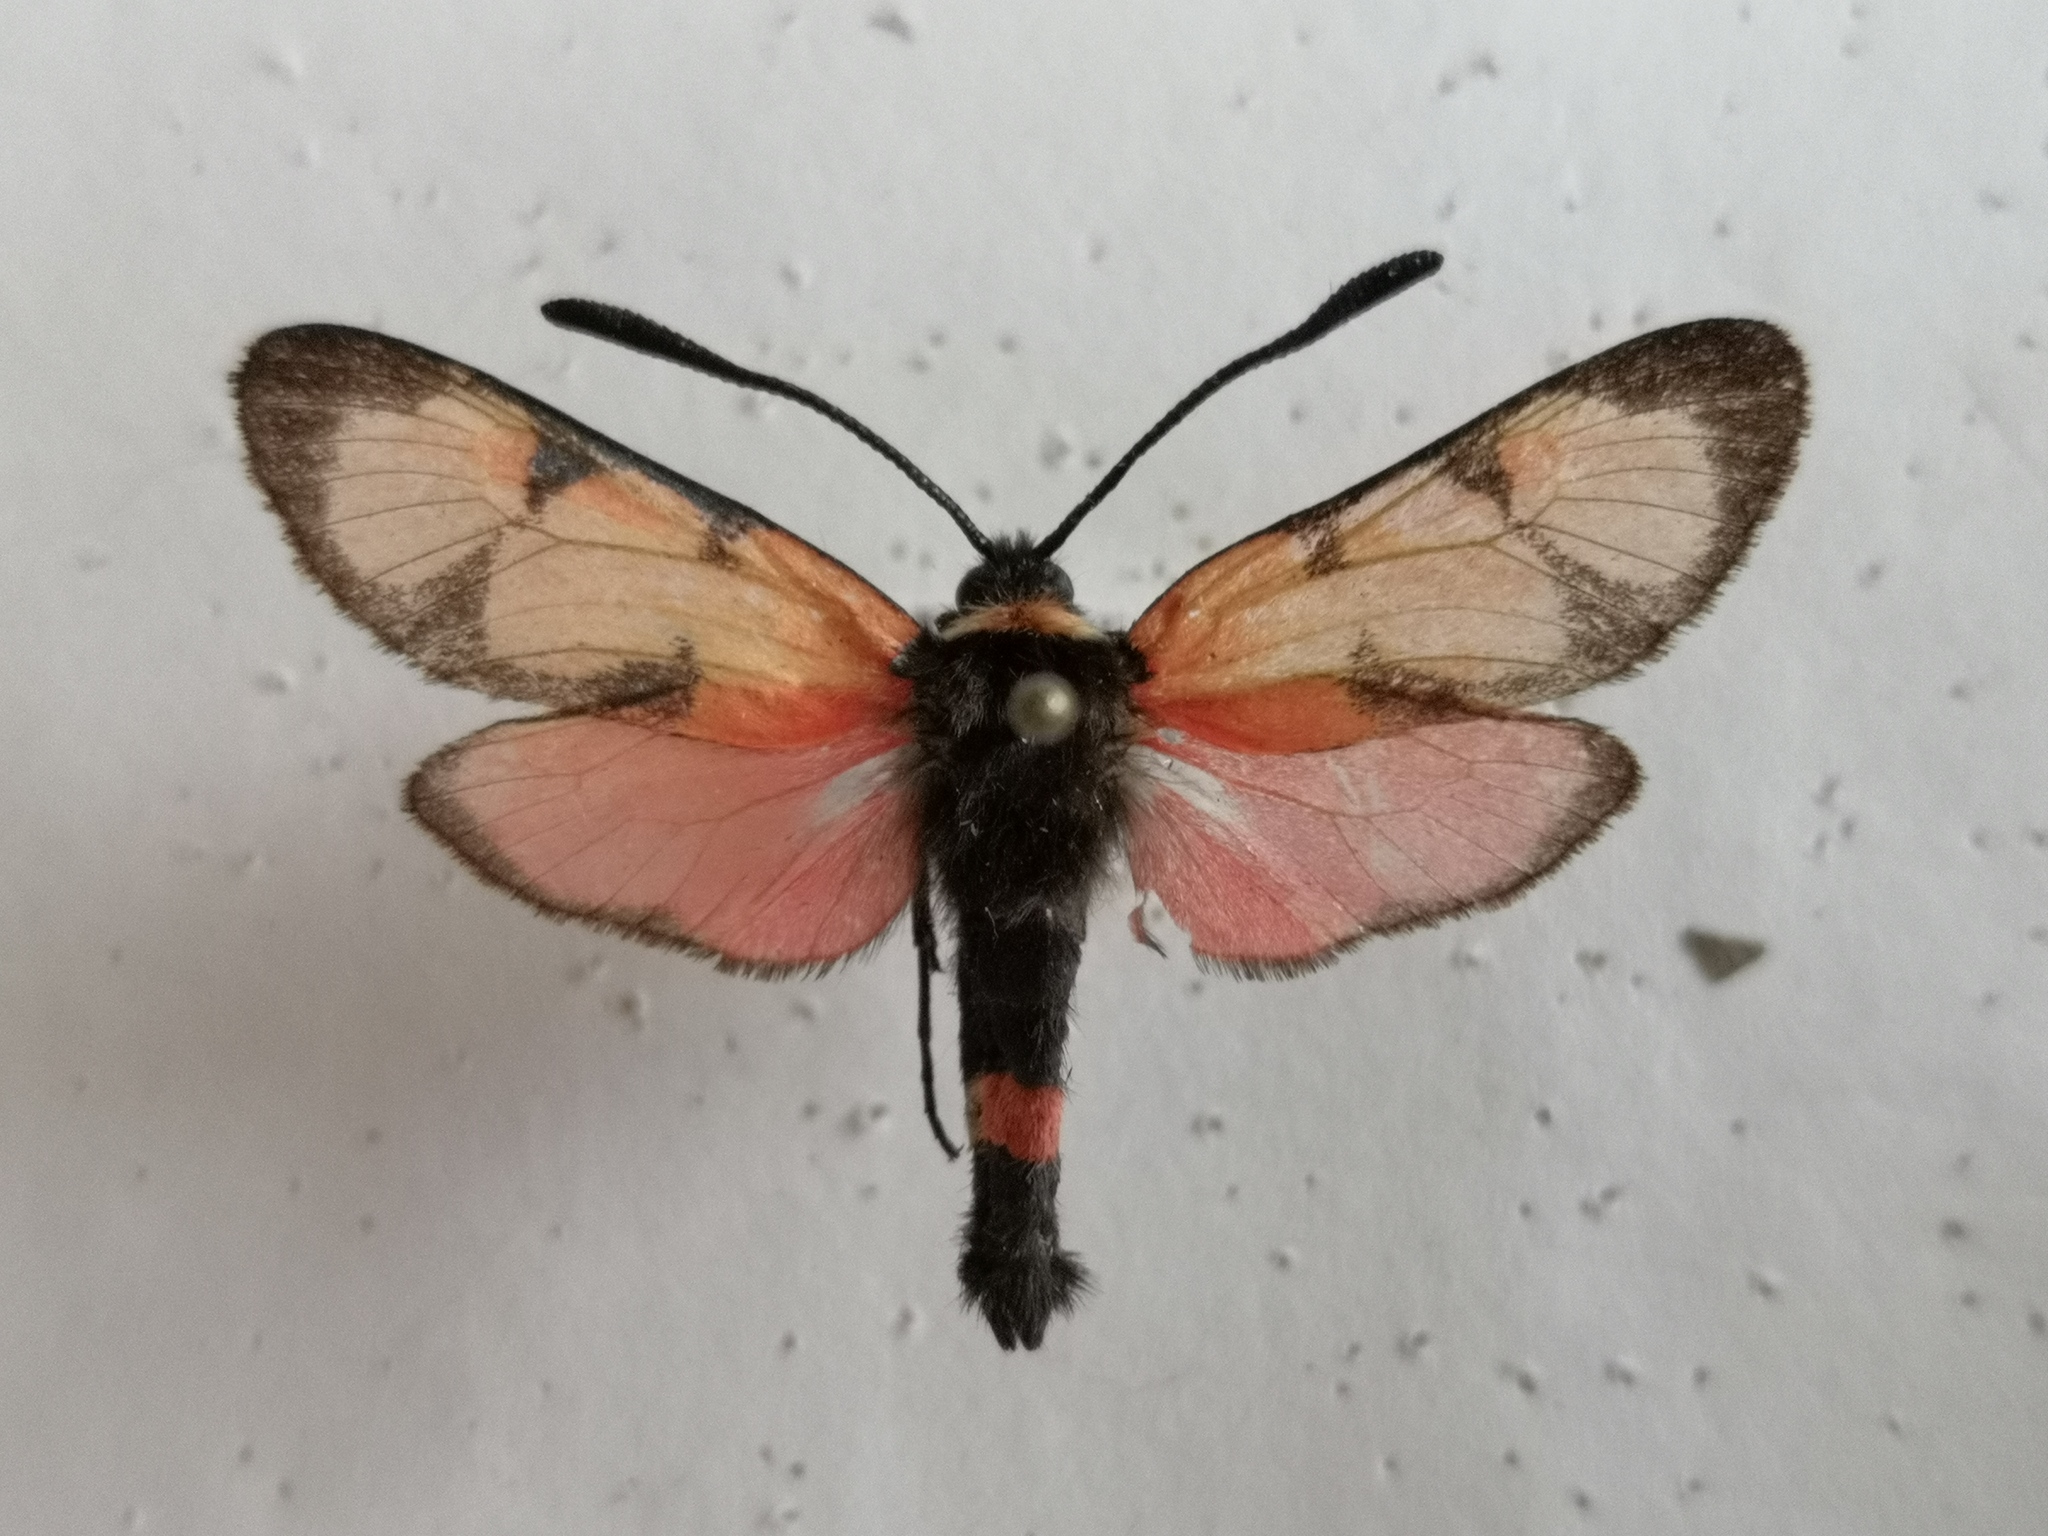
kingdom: Animalia
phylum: Arthropoda
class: Insecta
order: Lepidoptera
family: Zygaenidae
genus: Zygaena
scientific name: Zygaena cuvieri
